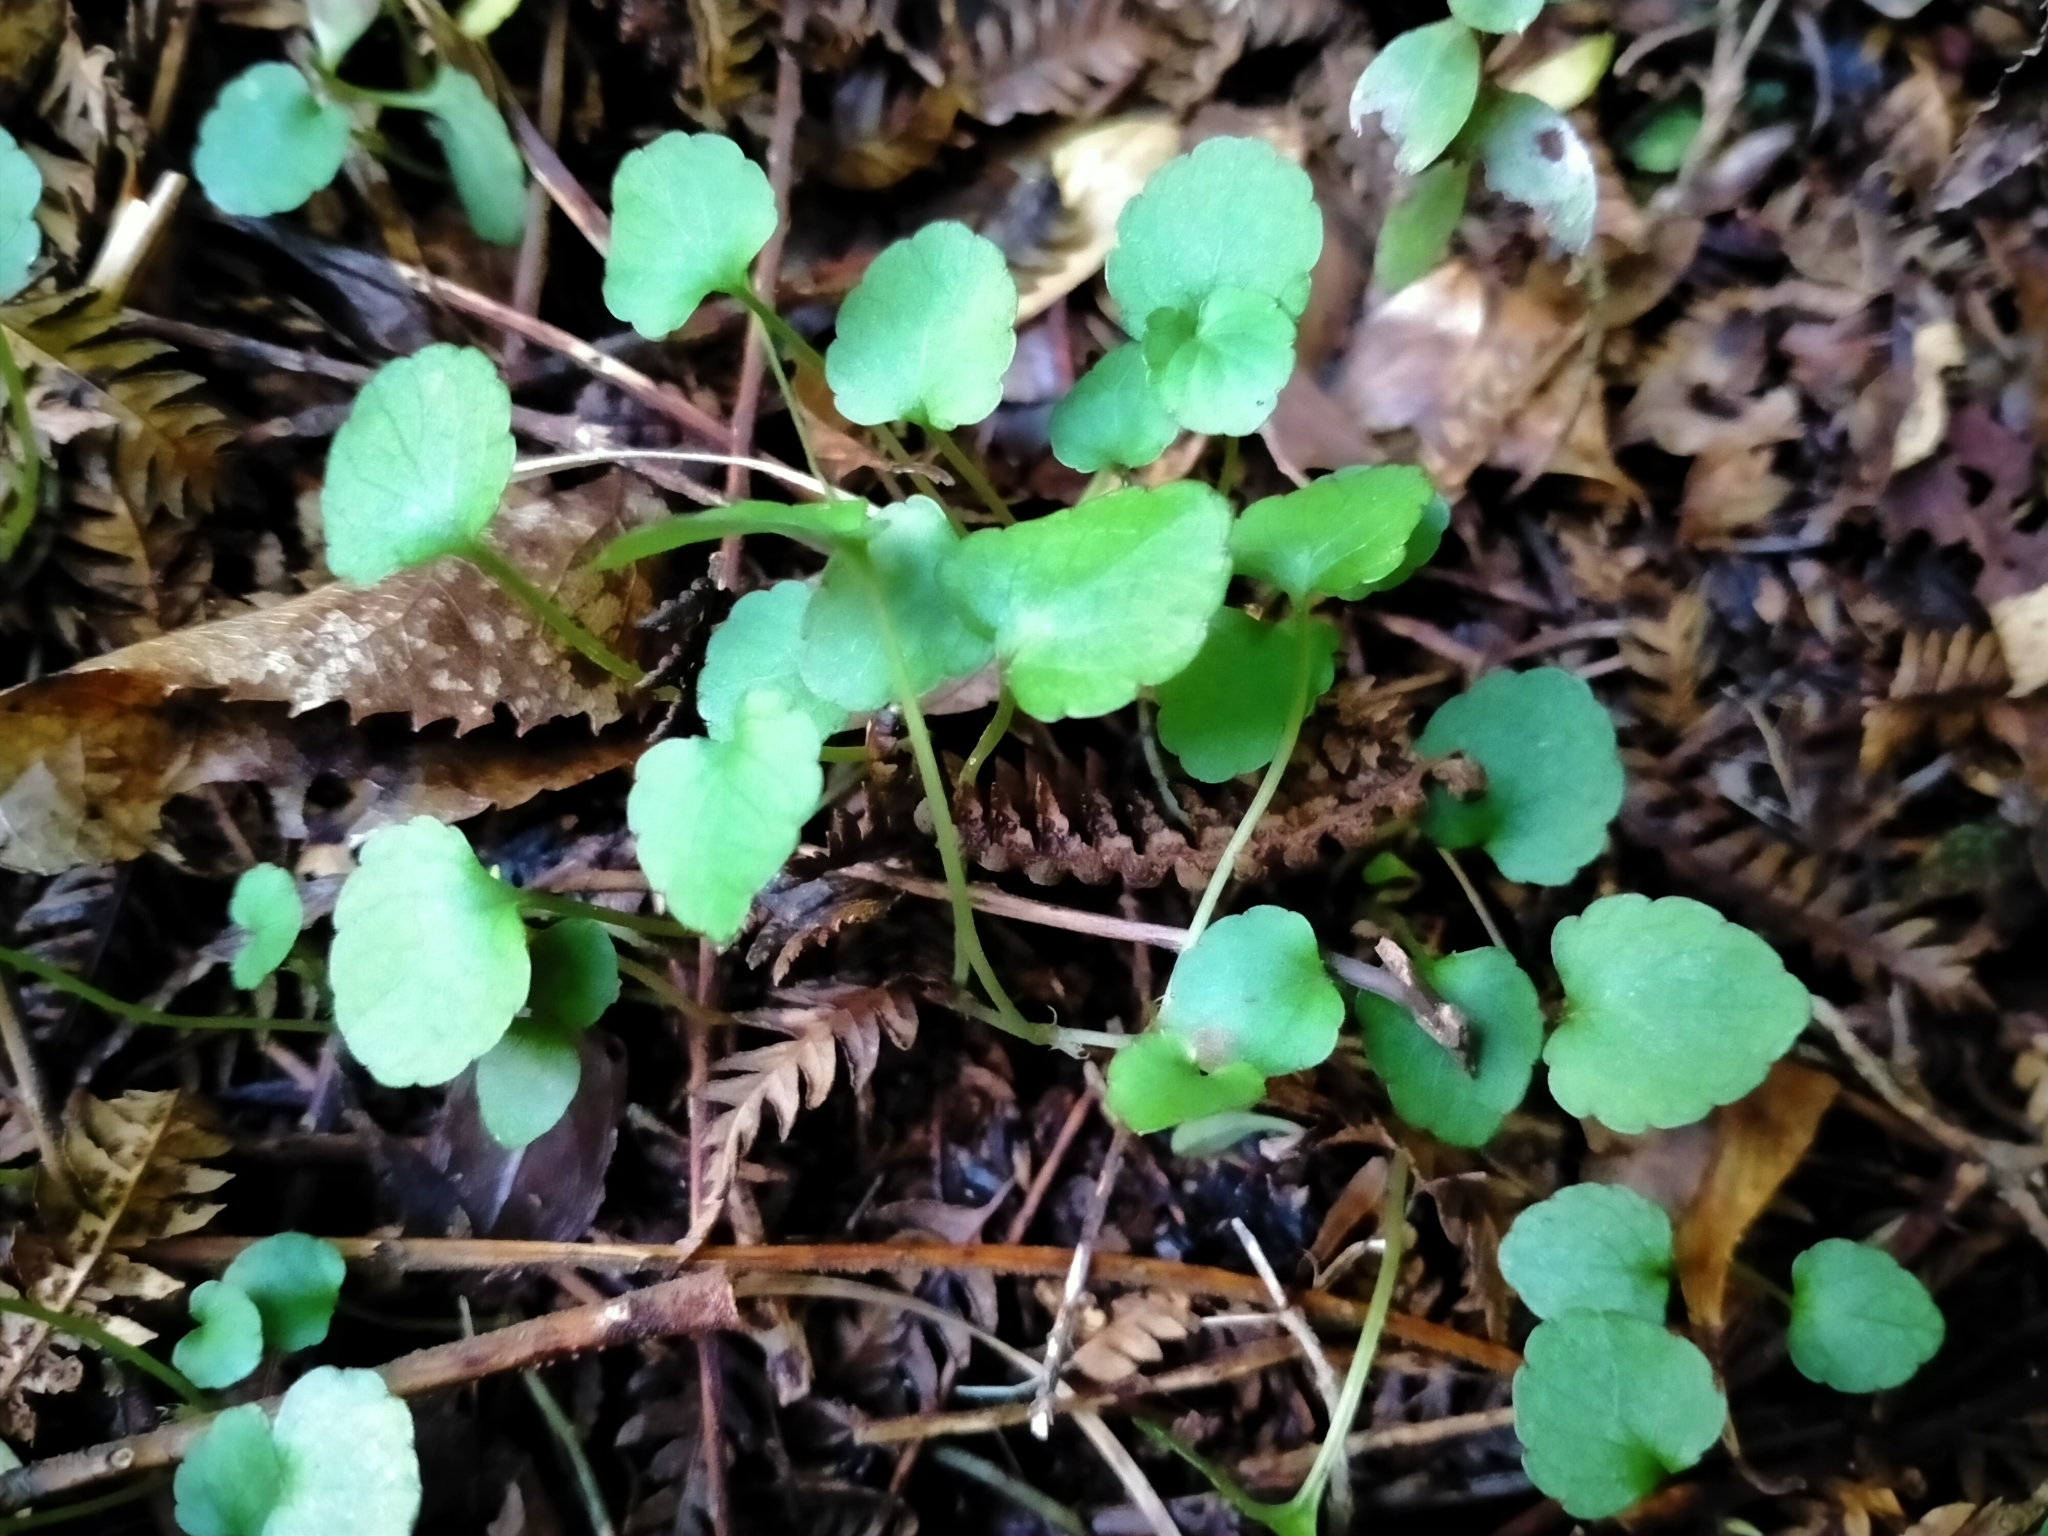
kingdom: Plantae
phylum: Tracheophyta
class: Magnoliopsida
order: Malpighiales
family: Violaceae
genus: Viola
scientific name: Viola filicaulis
